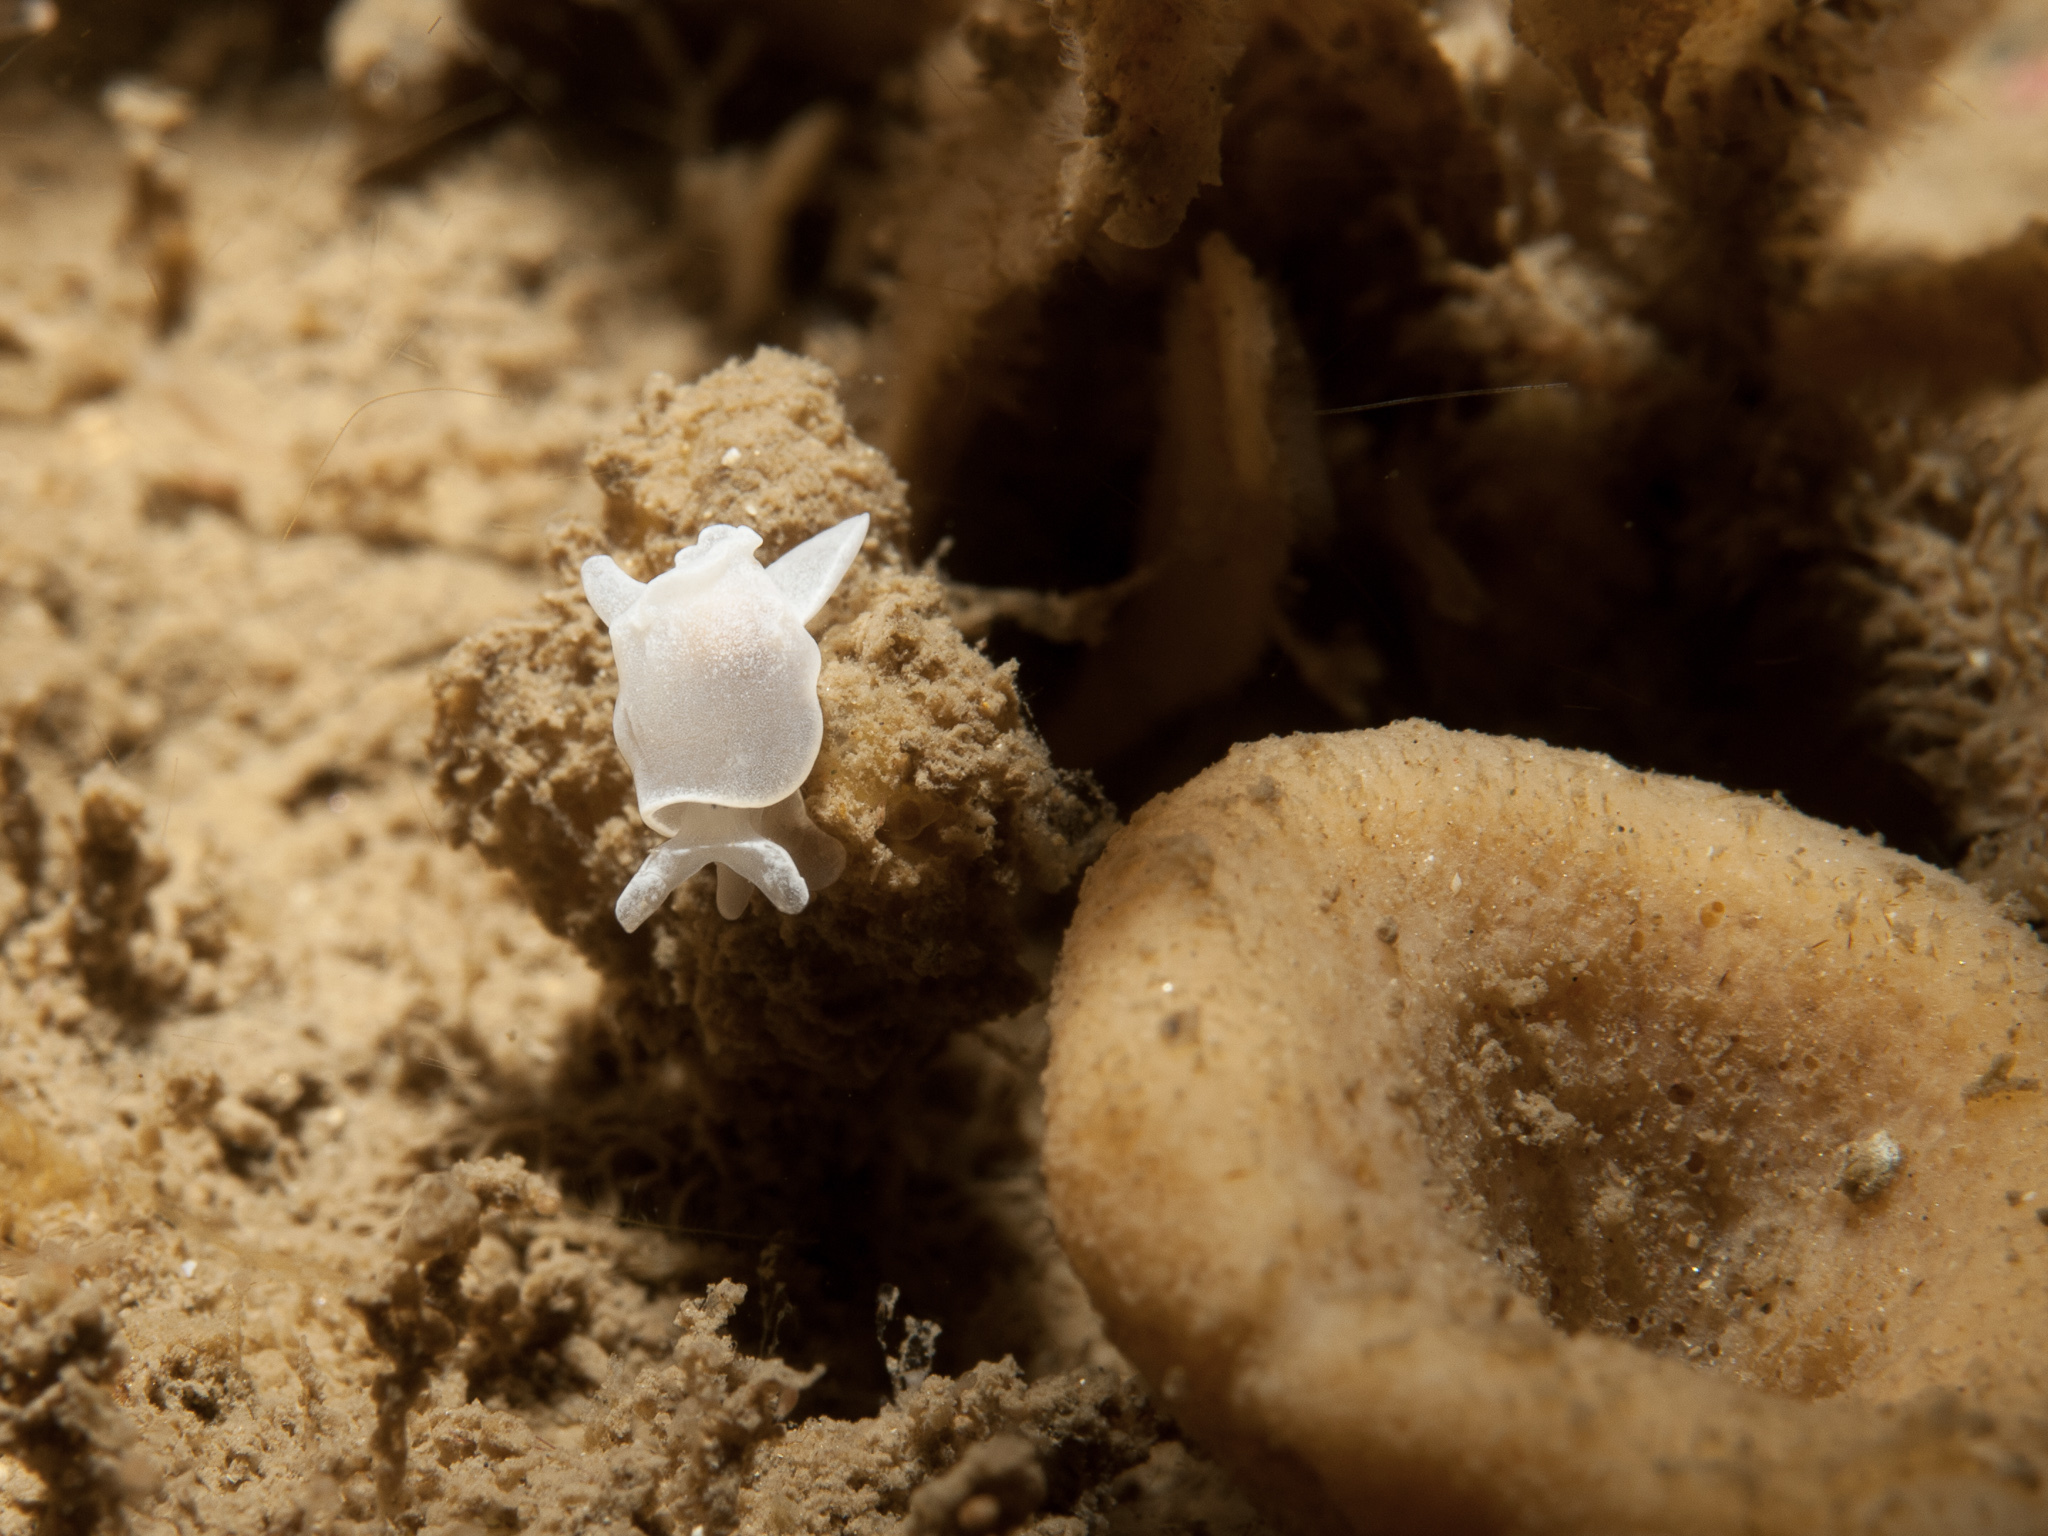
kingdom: Animalia
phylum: Mollusca
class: Gastropoda
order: Cephalaspidea
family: Colpodaspididae
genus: Colpodaspis
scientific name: Colpodaspis pusilla
